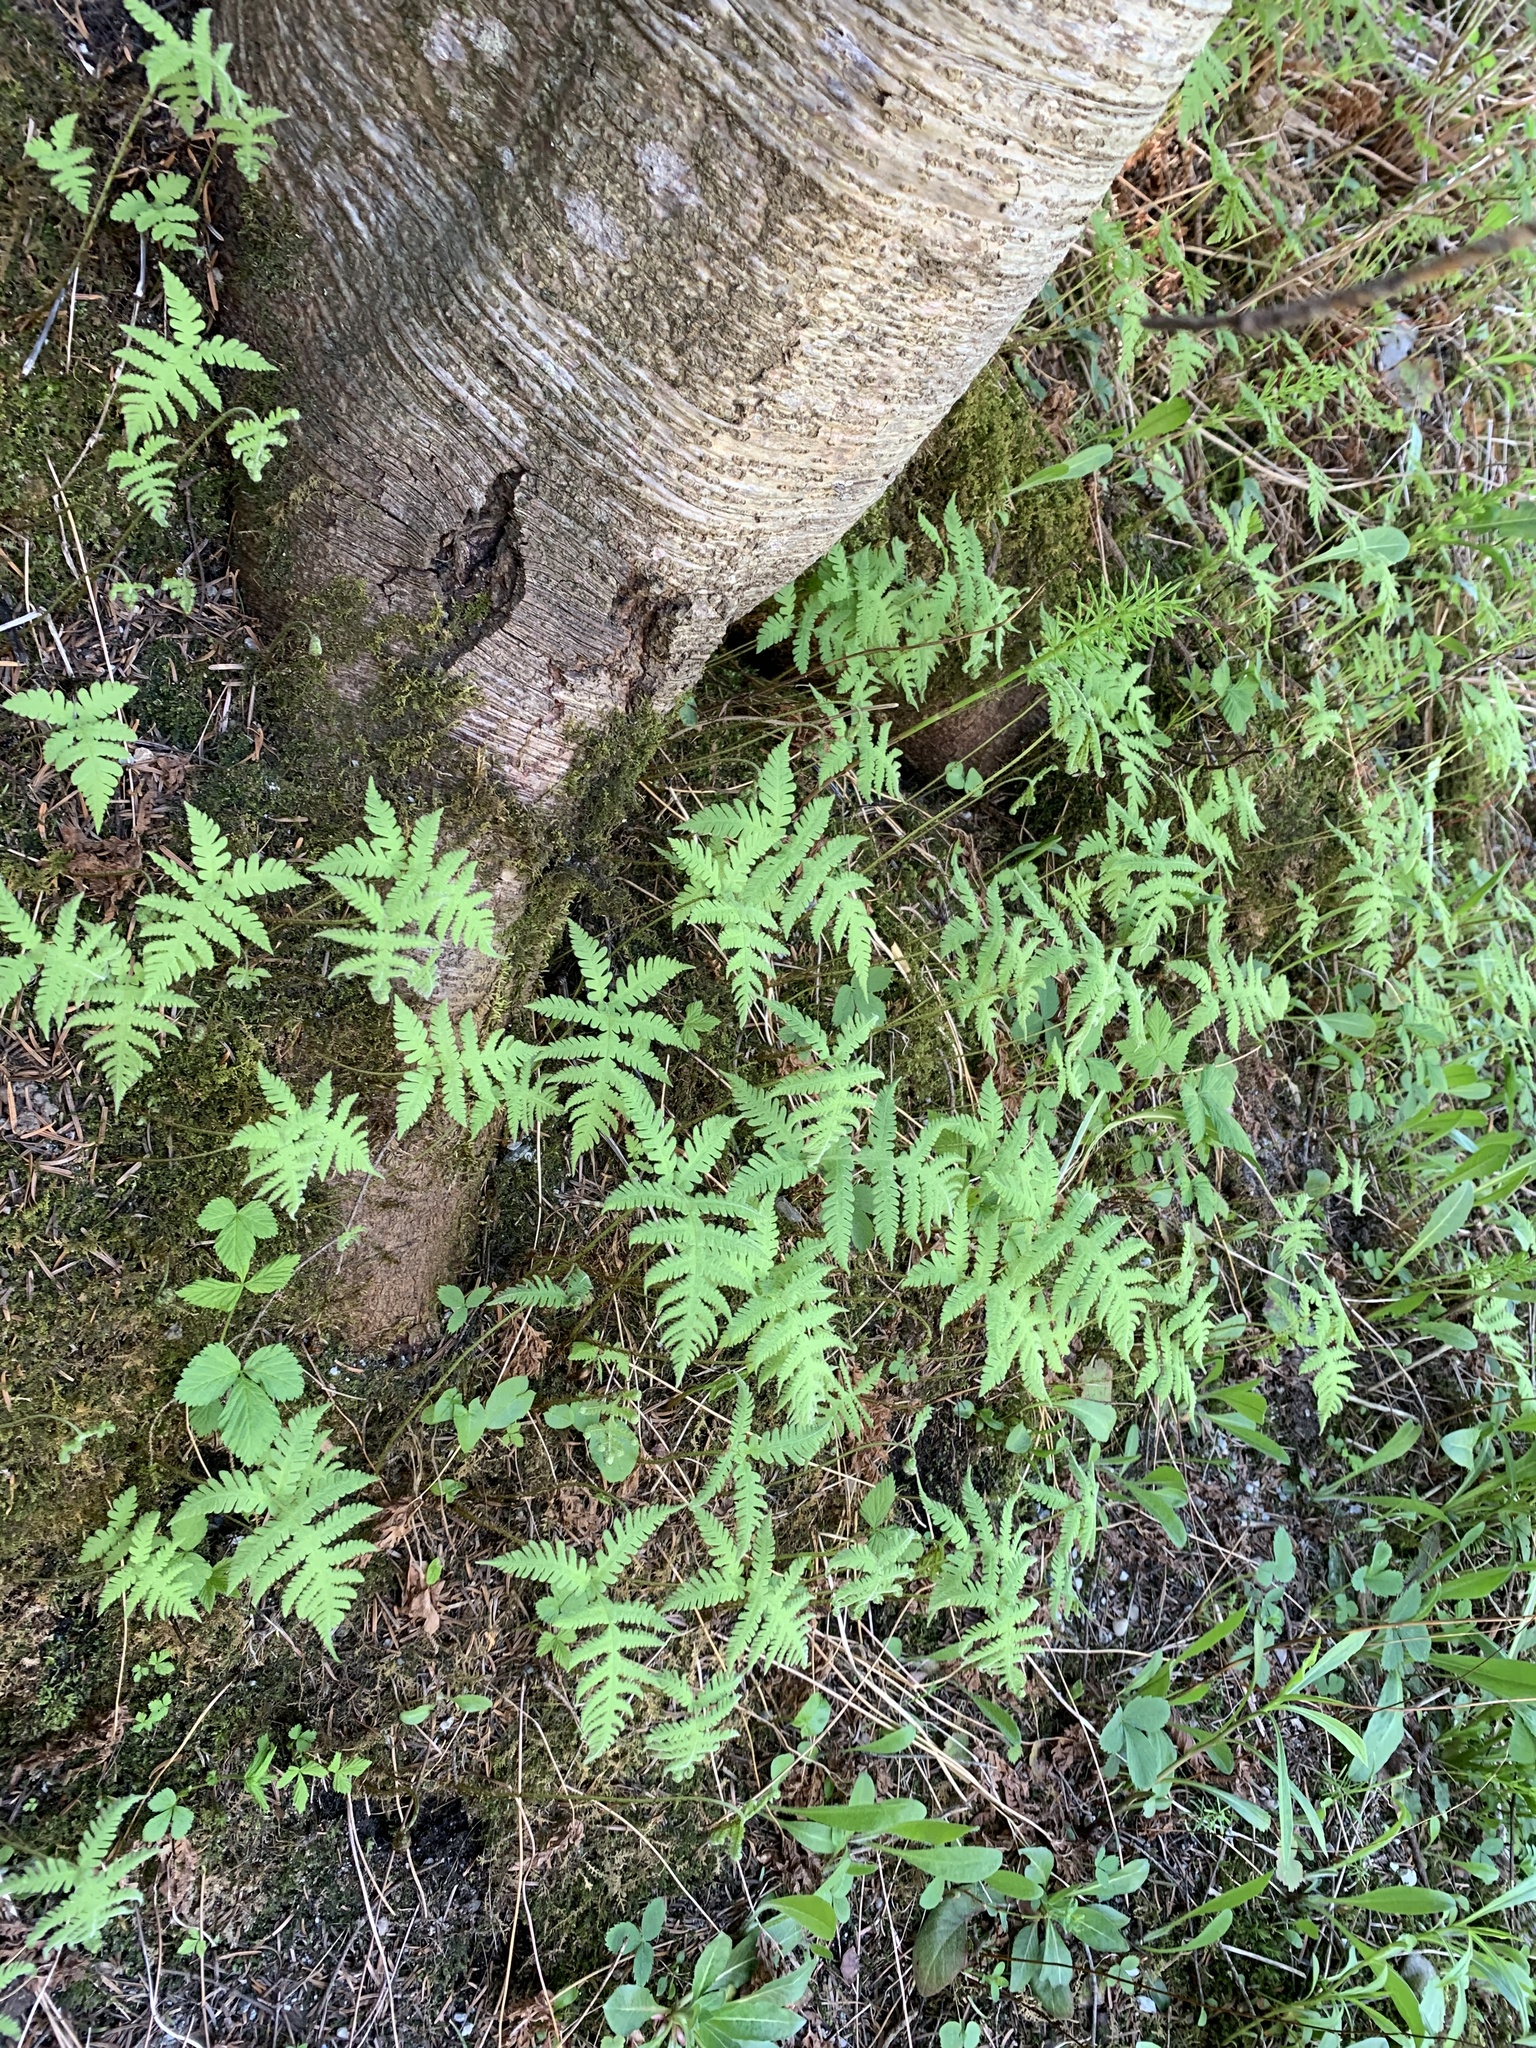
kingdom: Plantae
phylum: Tracheophyta
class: Polypodiopsida
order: Polypodiales
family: Thelypteridaceae
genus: Phegopteris
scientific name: Phegopteris connectilis
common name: Beech fern
